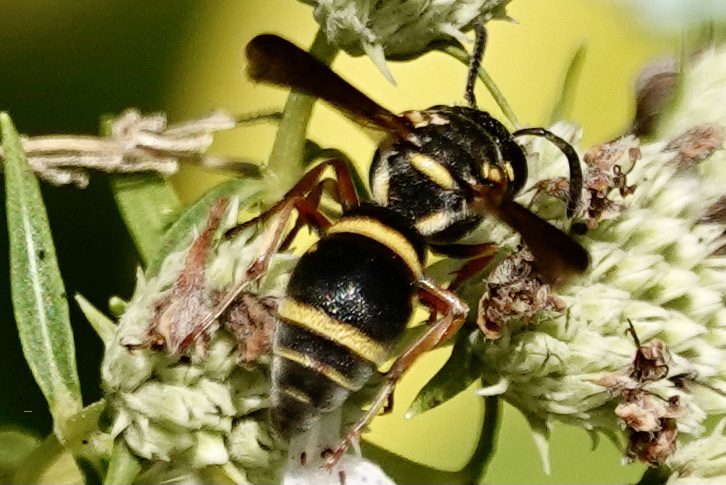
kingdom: Animalia
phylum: Arthropoda
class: Insecta
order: Hymenoptera
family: Eumenidae
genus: Rhynchalastor
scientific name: Rhynchalastor fundatiformis
